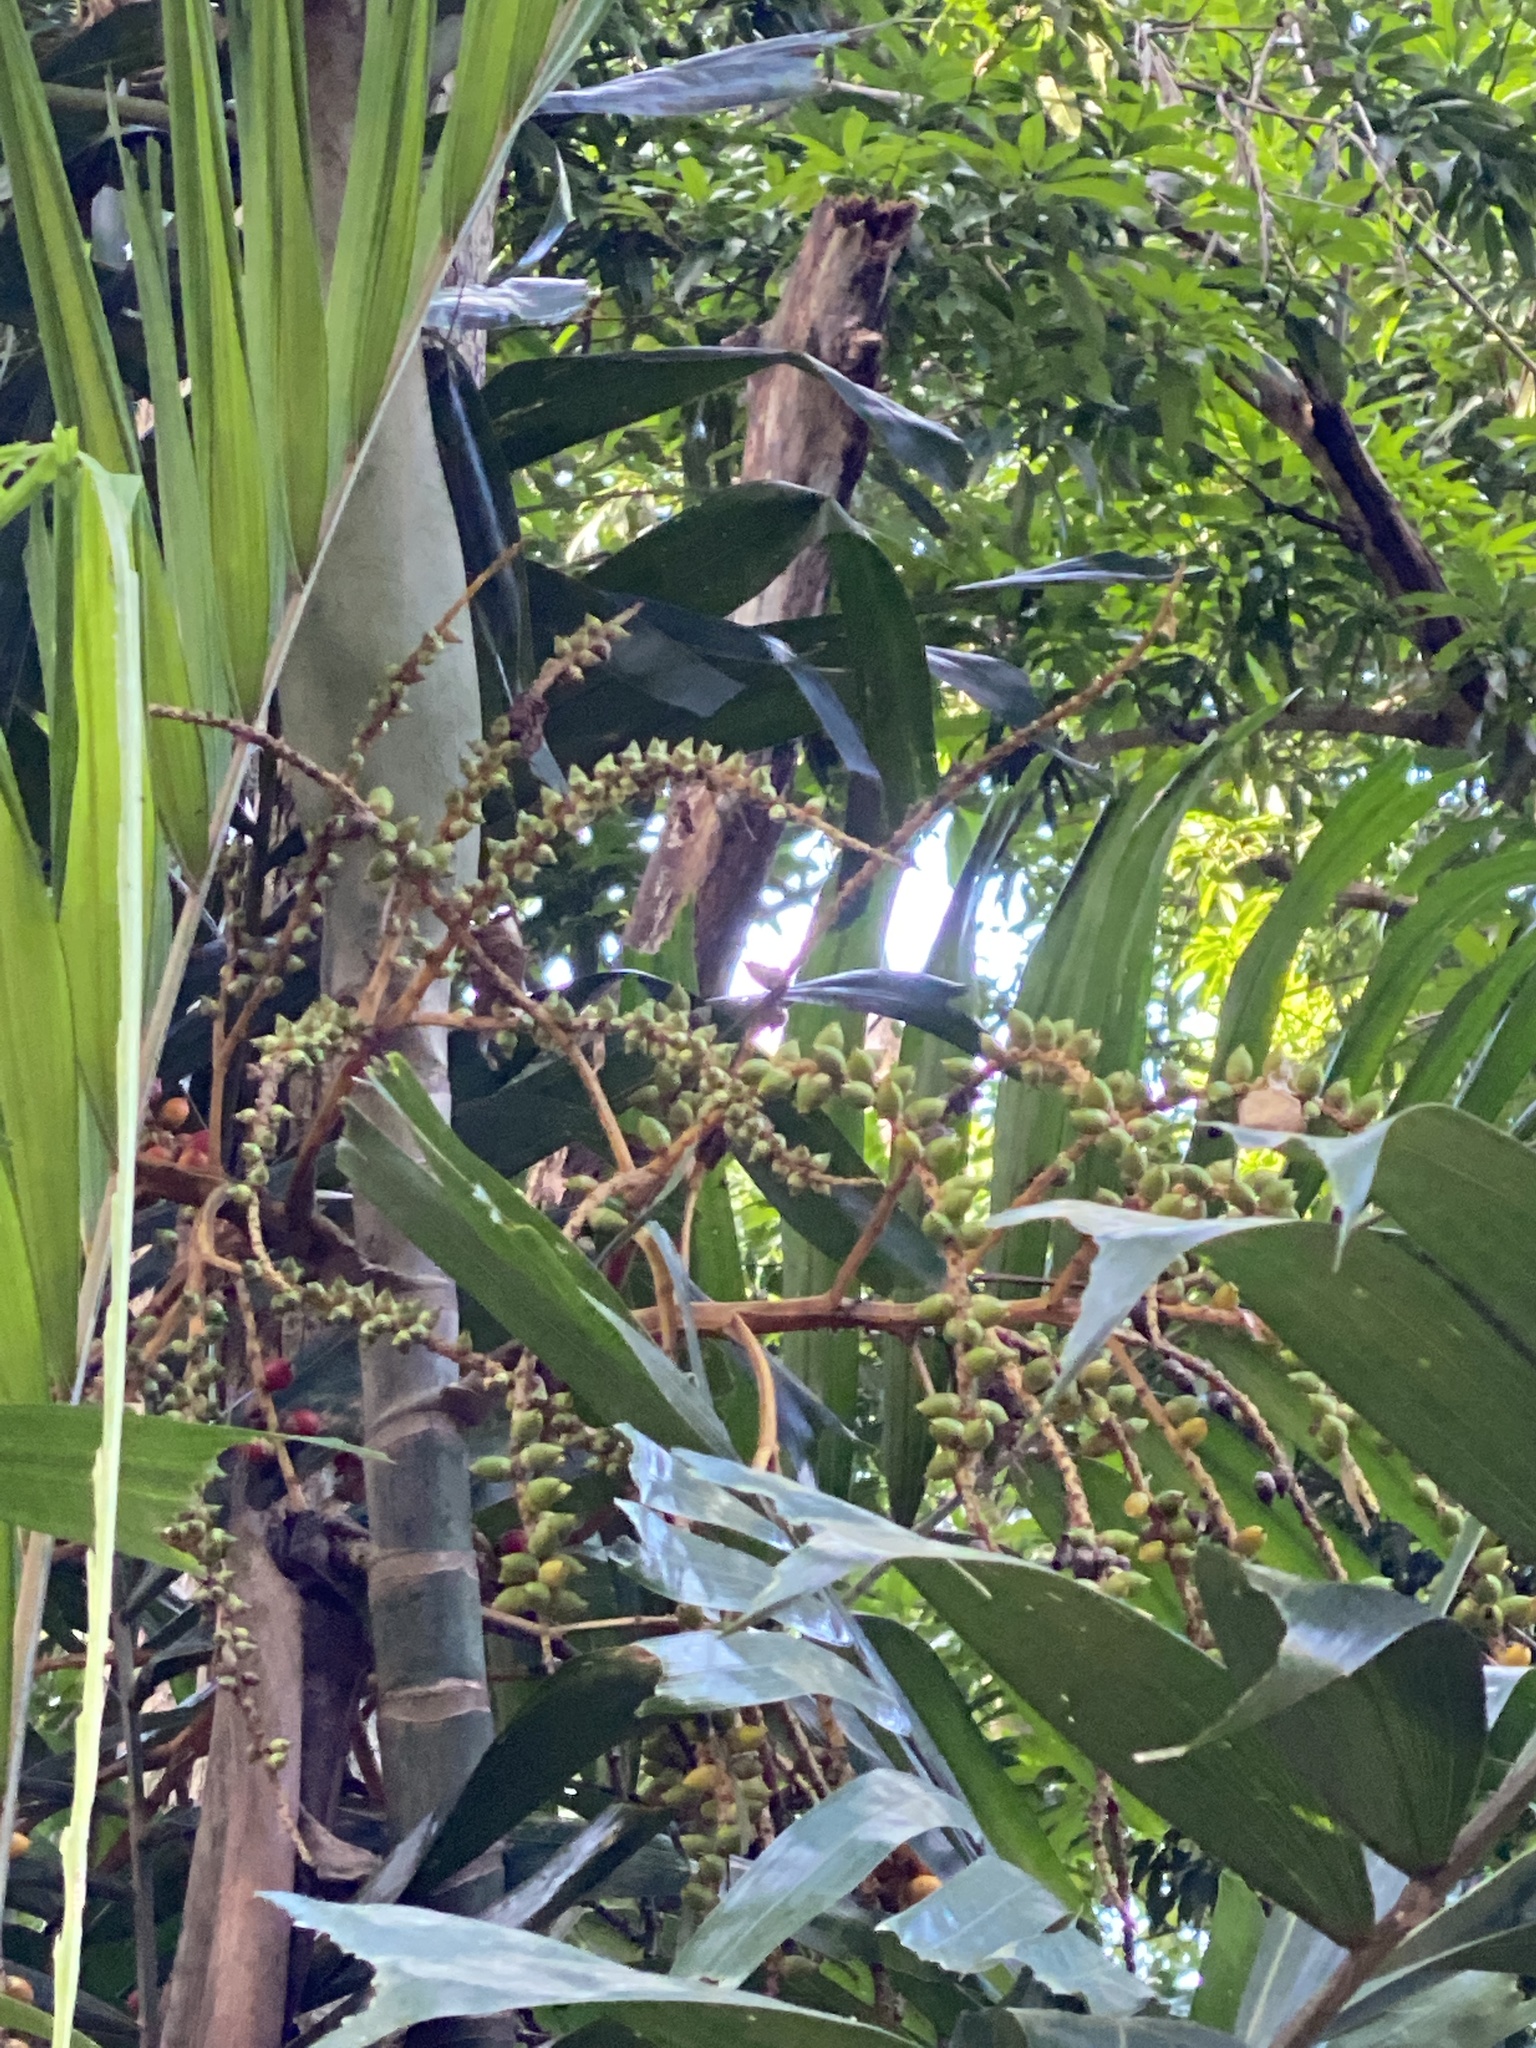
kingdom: Plantae
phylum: Tracheophyta
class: Liliopsida
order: Arecales
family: Arecaceae
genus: Hydriastele
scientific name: Hydriastele wendlandiana
